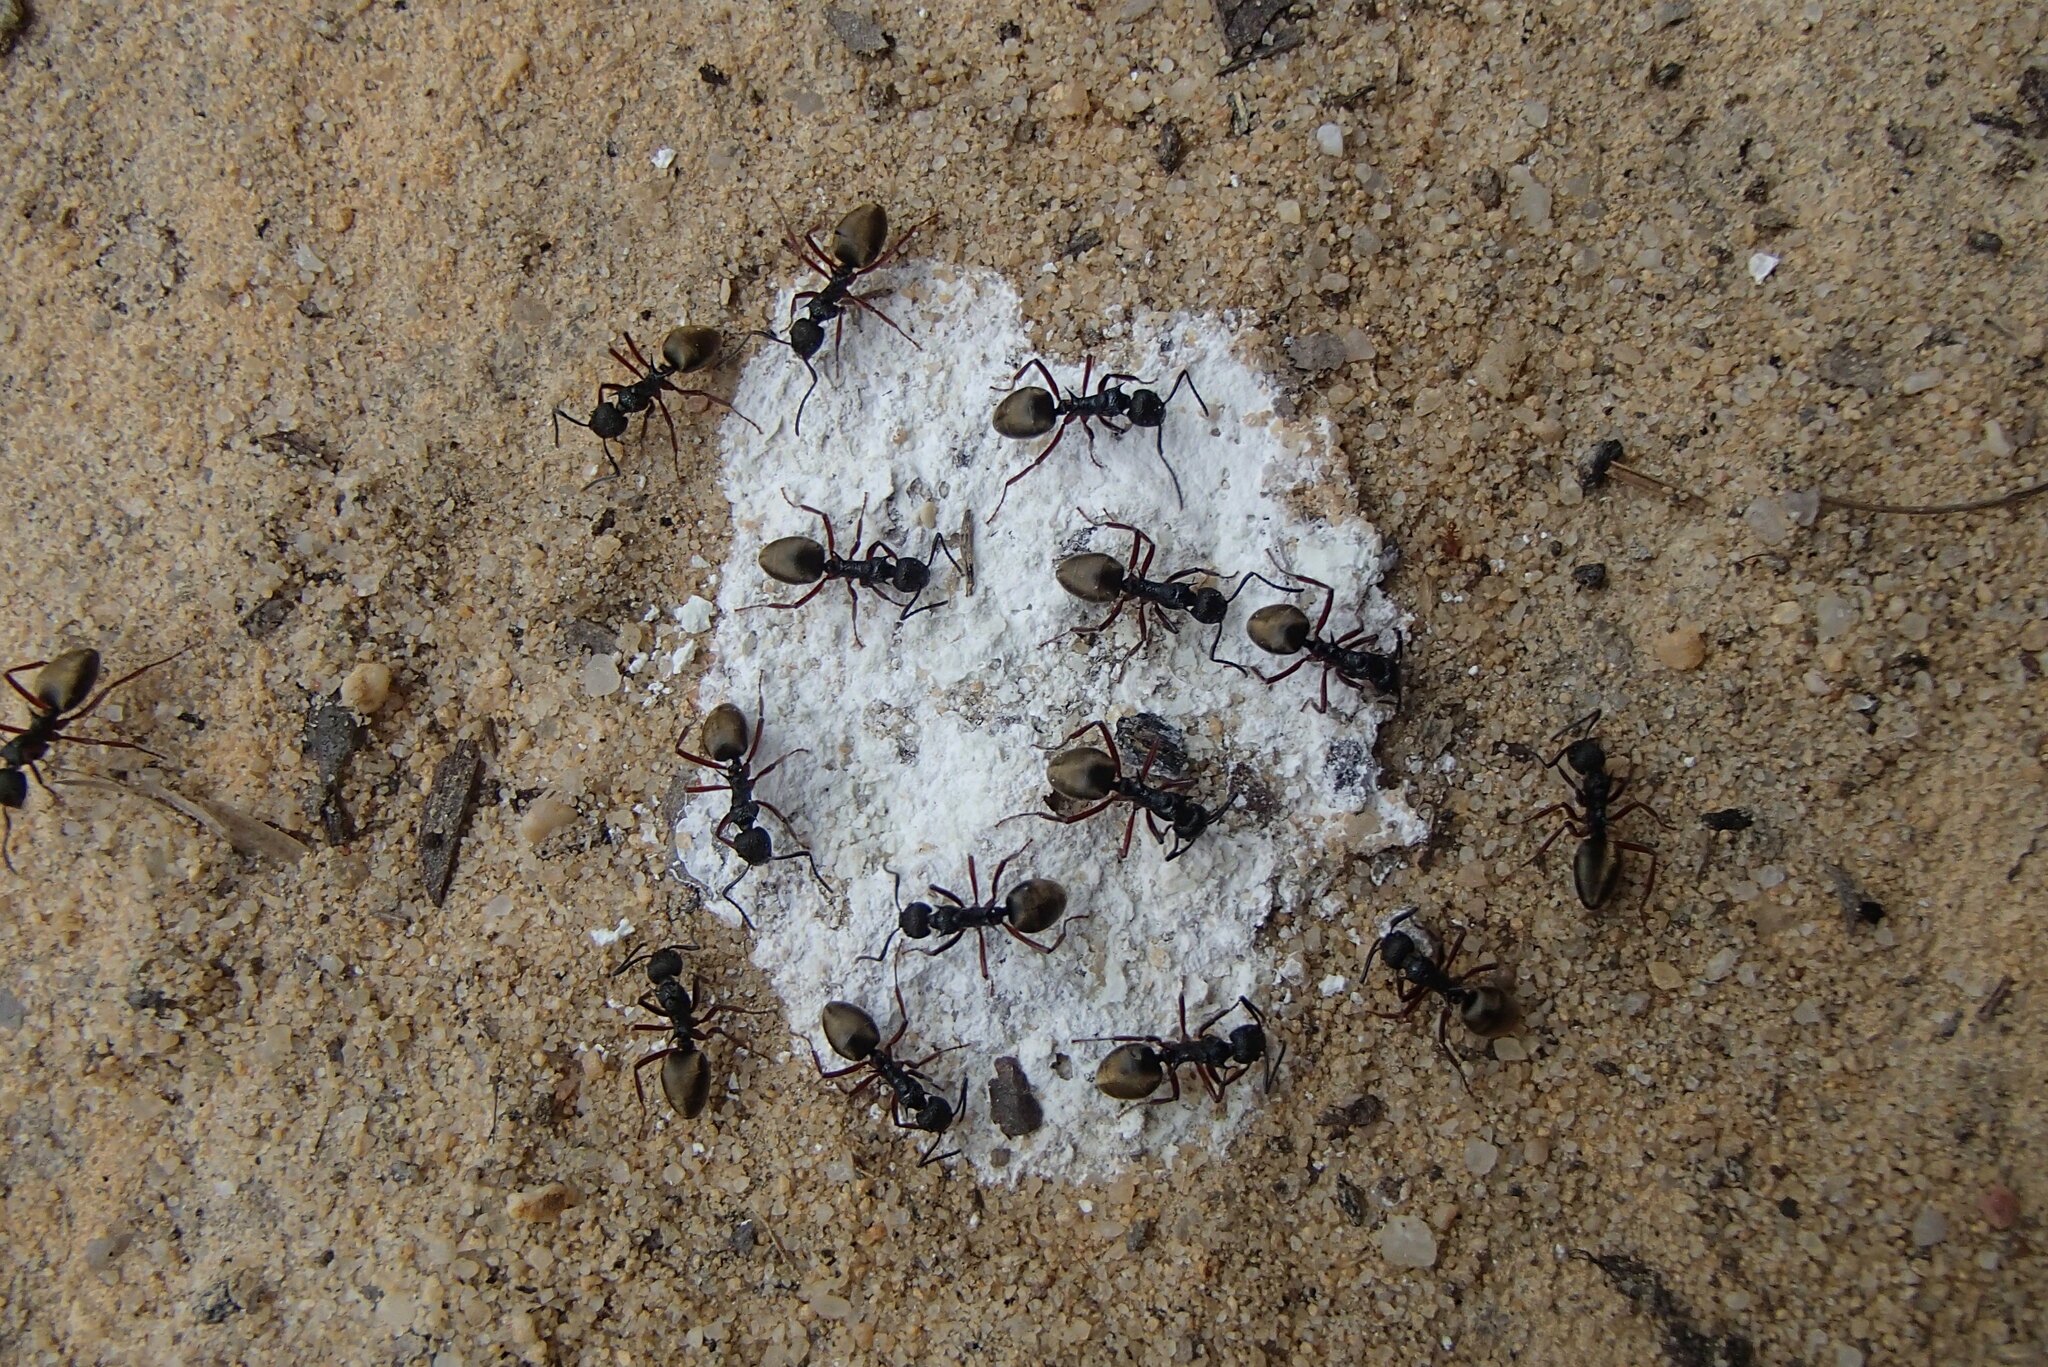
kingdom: Animalia
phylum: Arthropoda
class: Insecta
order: Hymenoptera
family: Formicidae
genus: Dolichoderus
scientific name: Dolichoderus doriae
